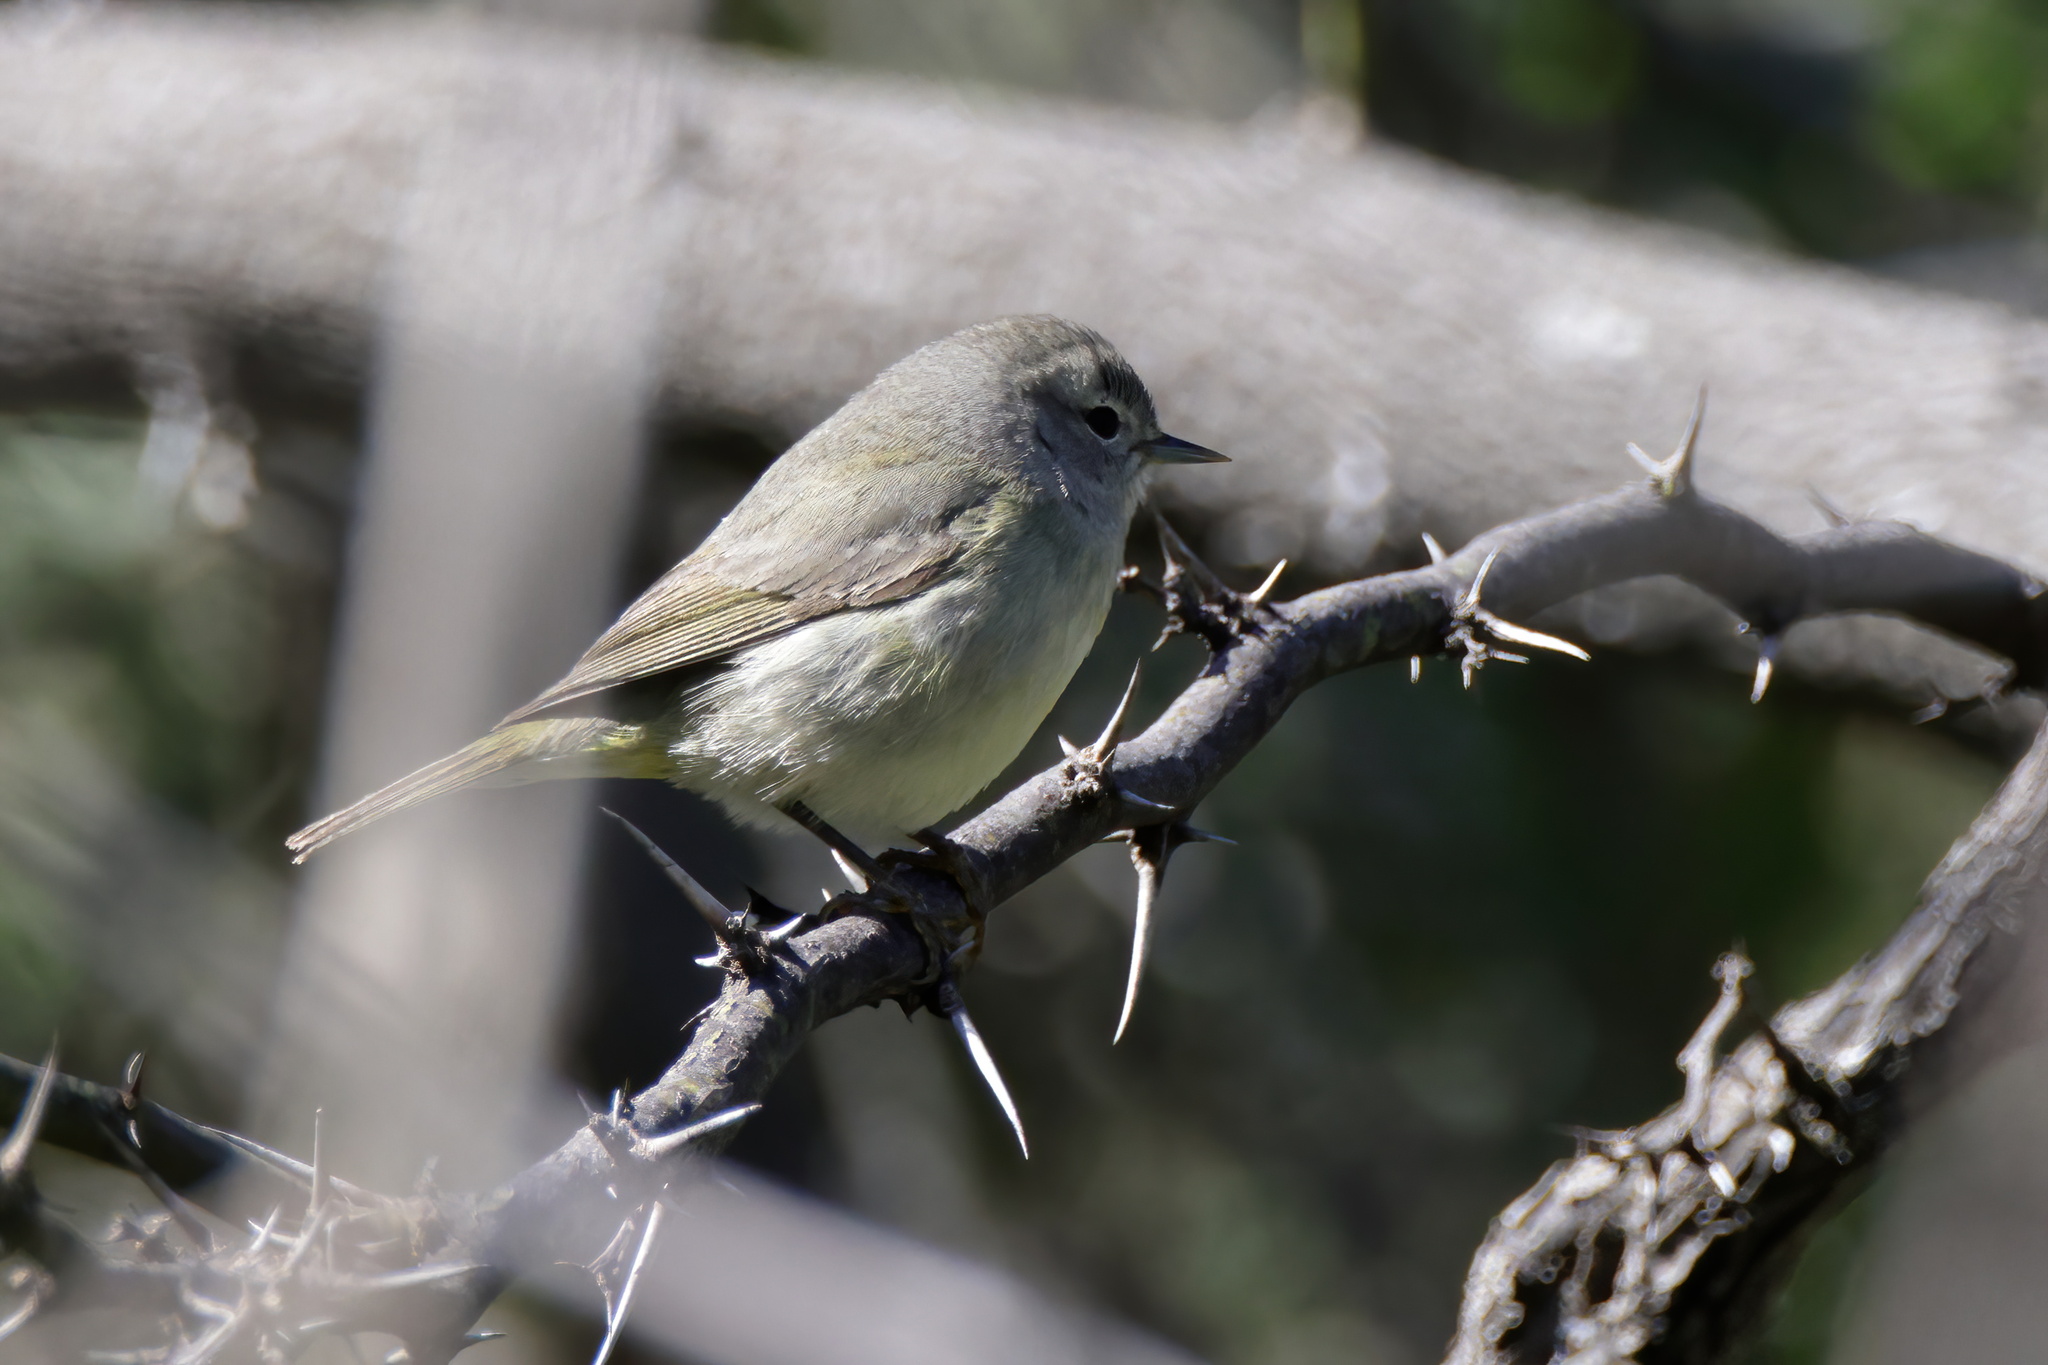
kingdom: Animalia
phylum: Chordata
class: Aves
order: Passeriformes
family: Parulidae
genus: Leiothlypis
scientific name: Leiothlypis celata
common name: Orange-crowned warbler
